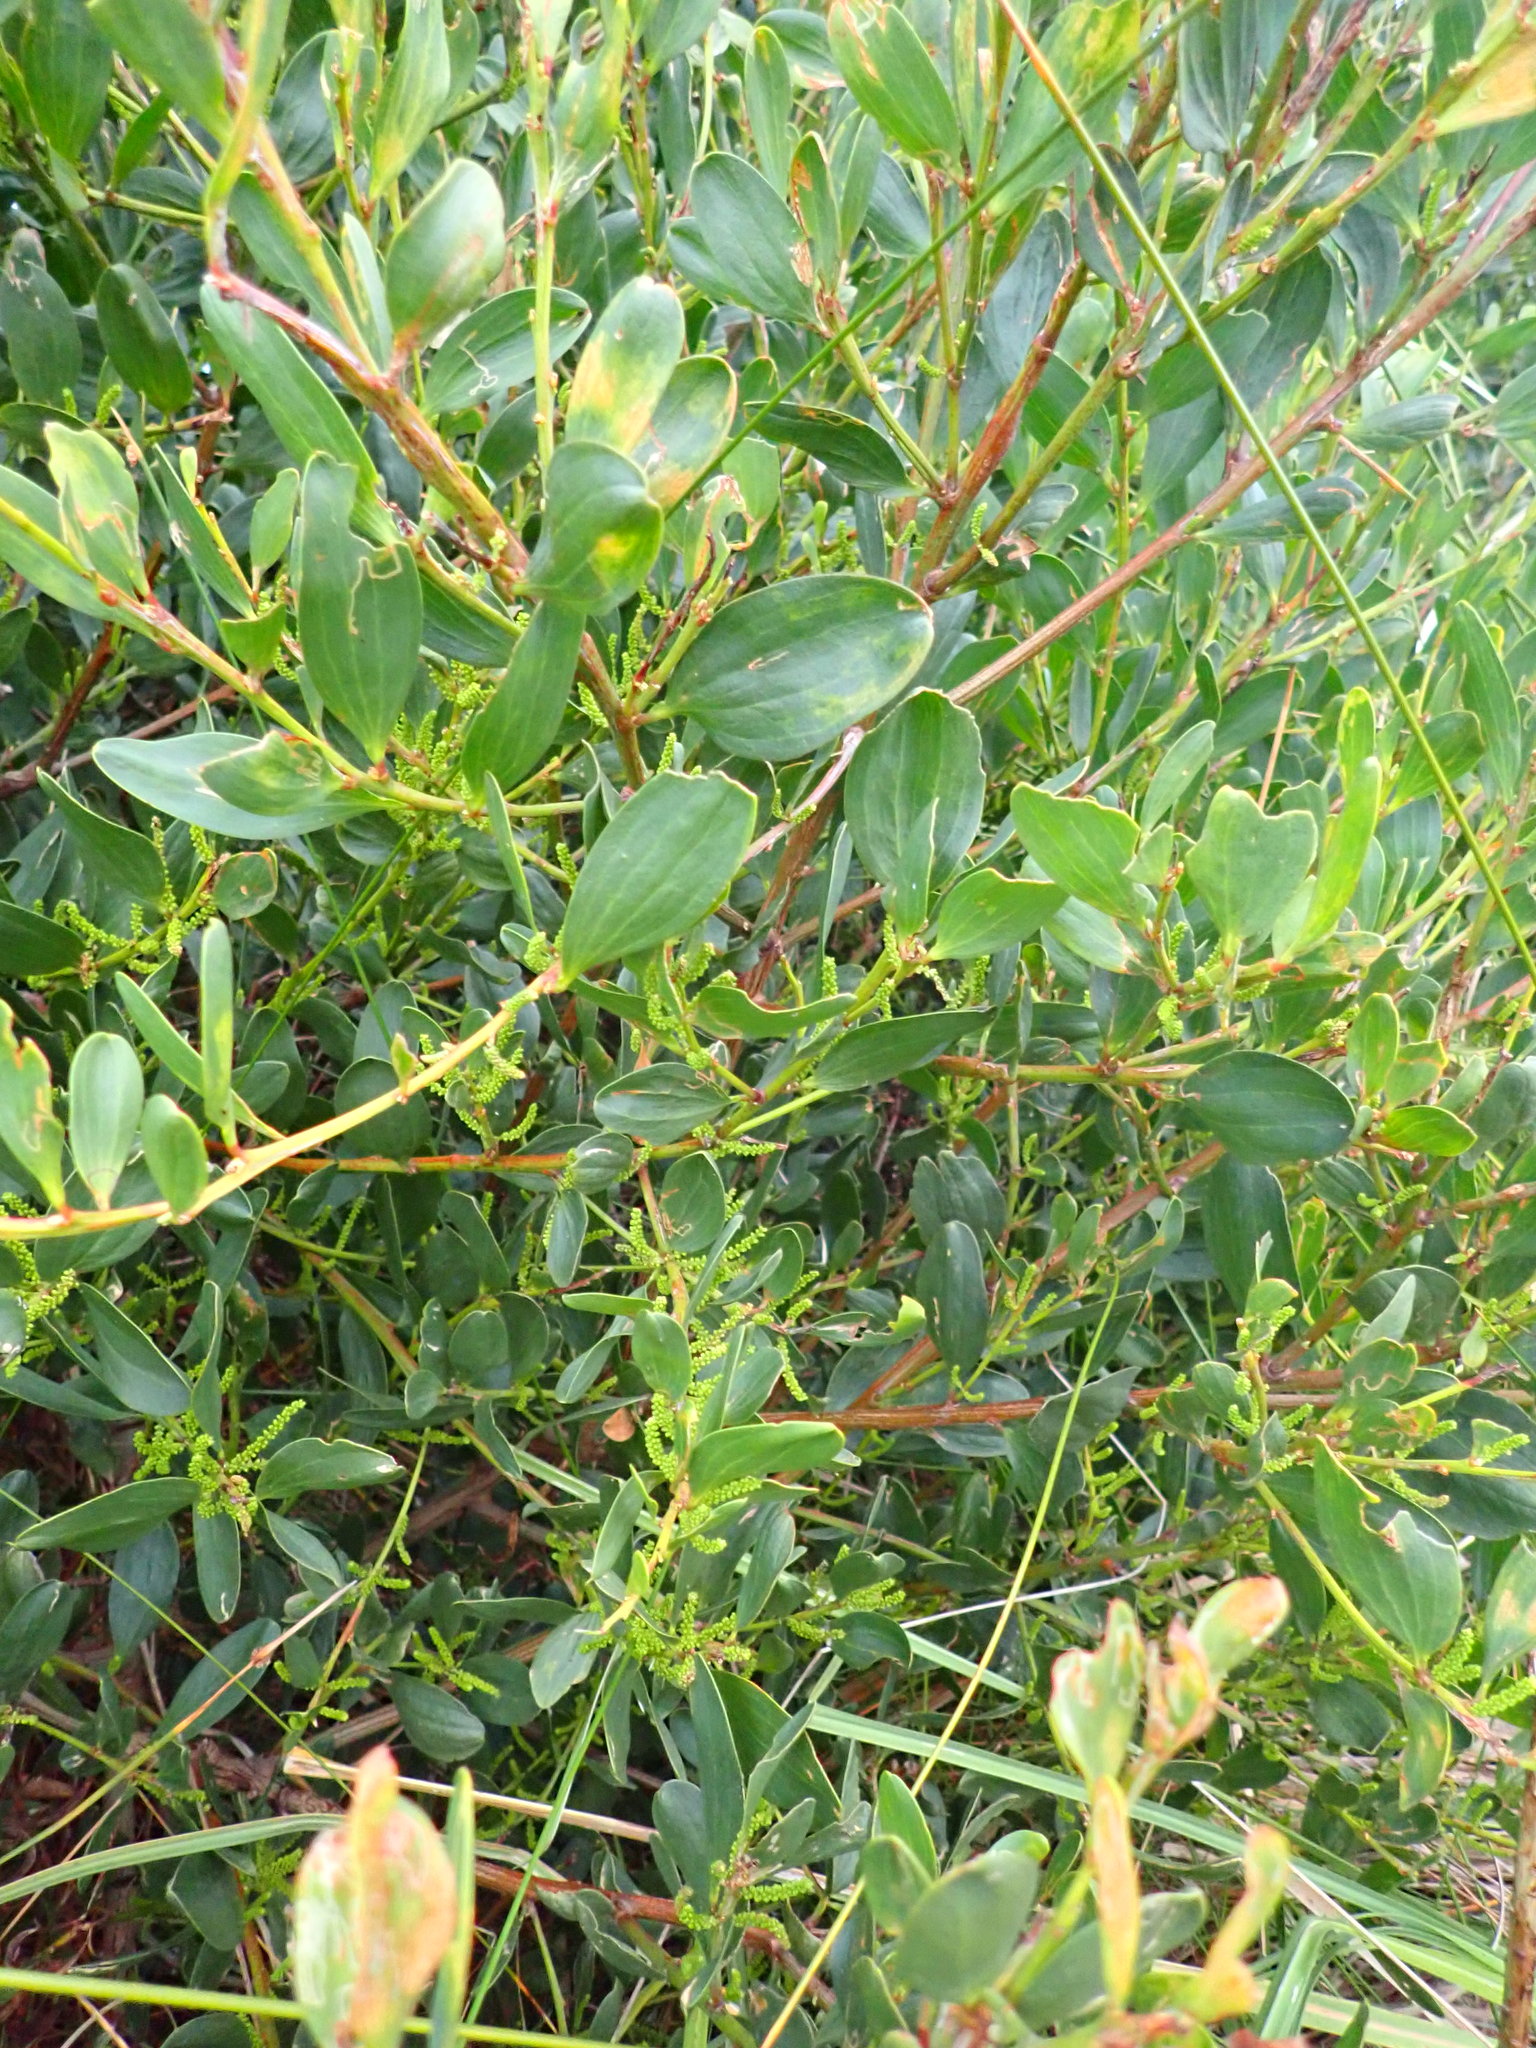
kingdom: Plantae
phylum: Tracheophyta
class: Magnoliopsida
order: Fabales
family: Fabaceae
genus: Acacia
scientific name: Acacia longifolia
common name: Sydney golden wattle
